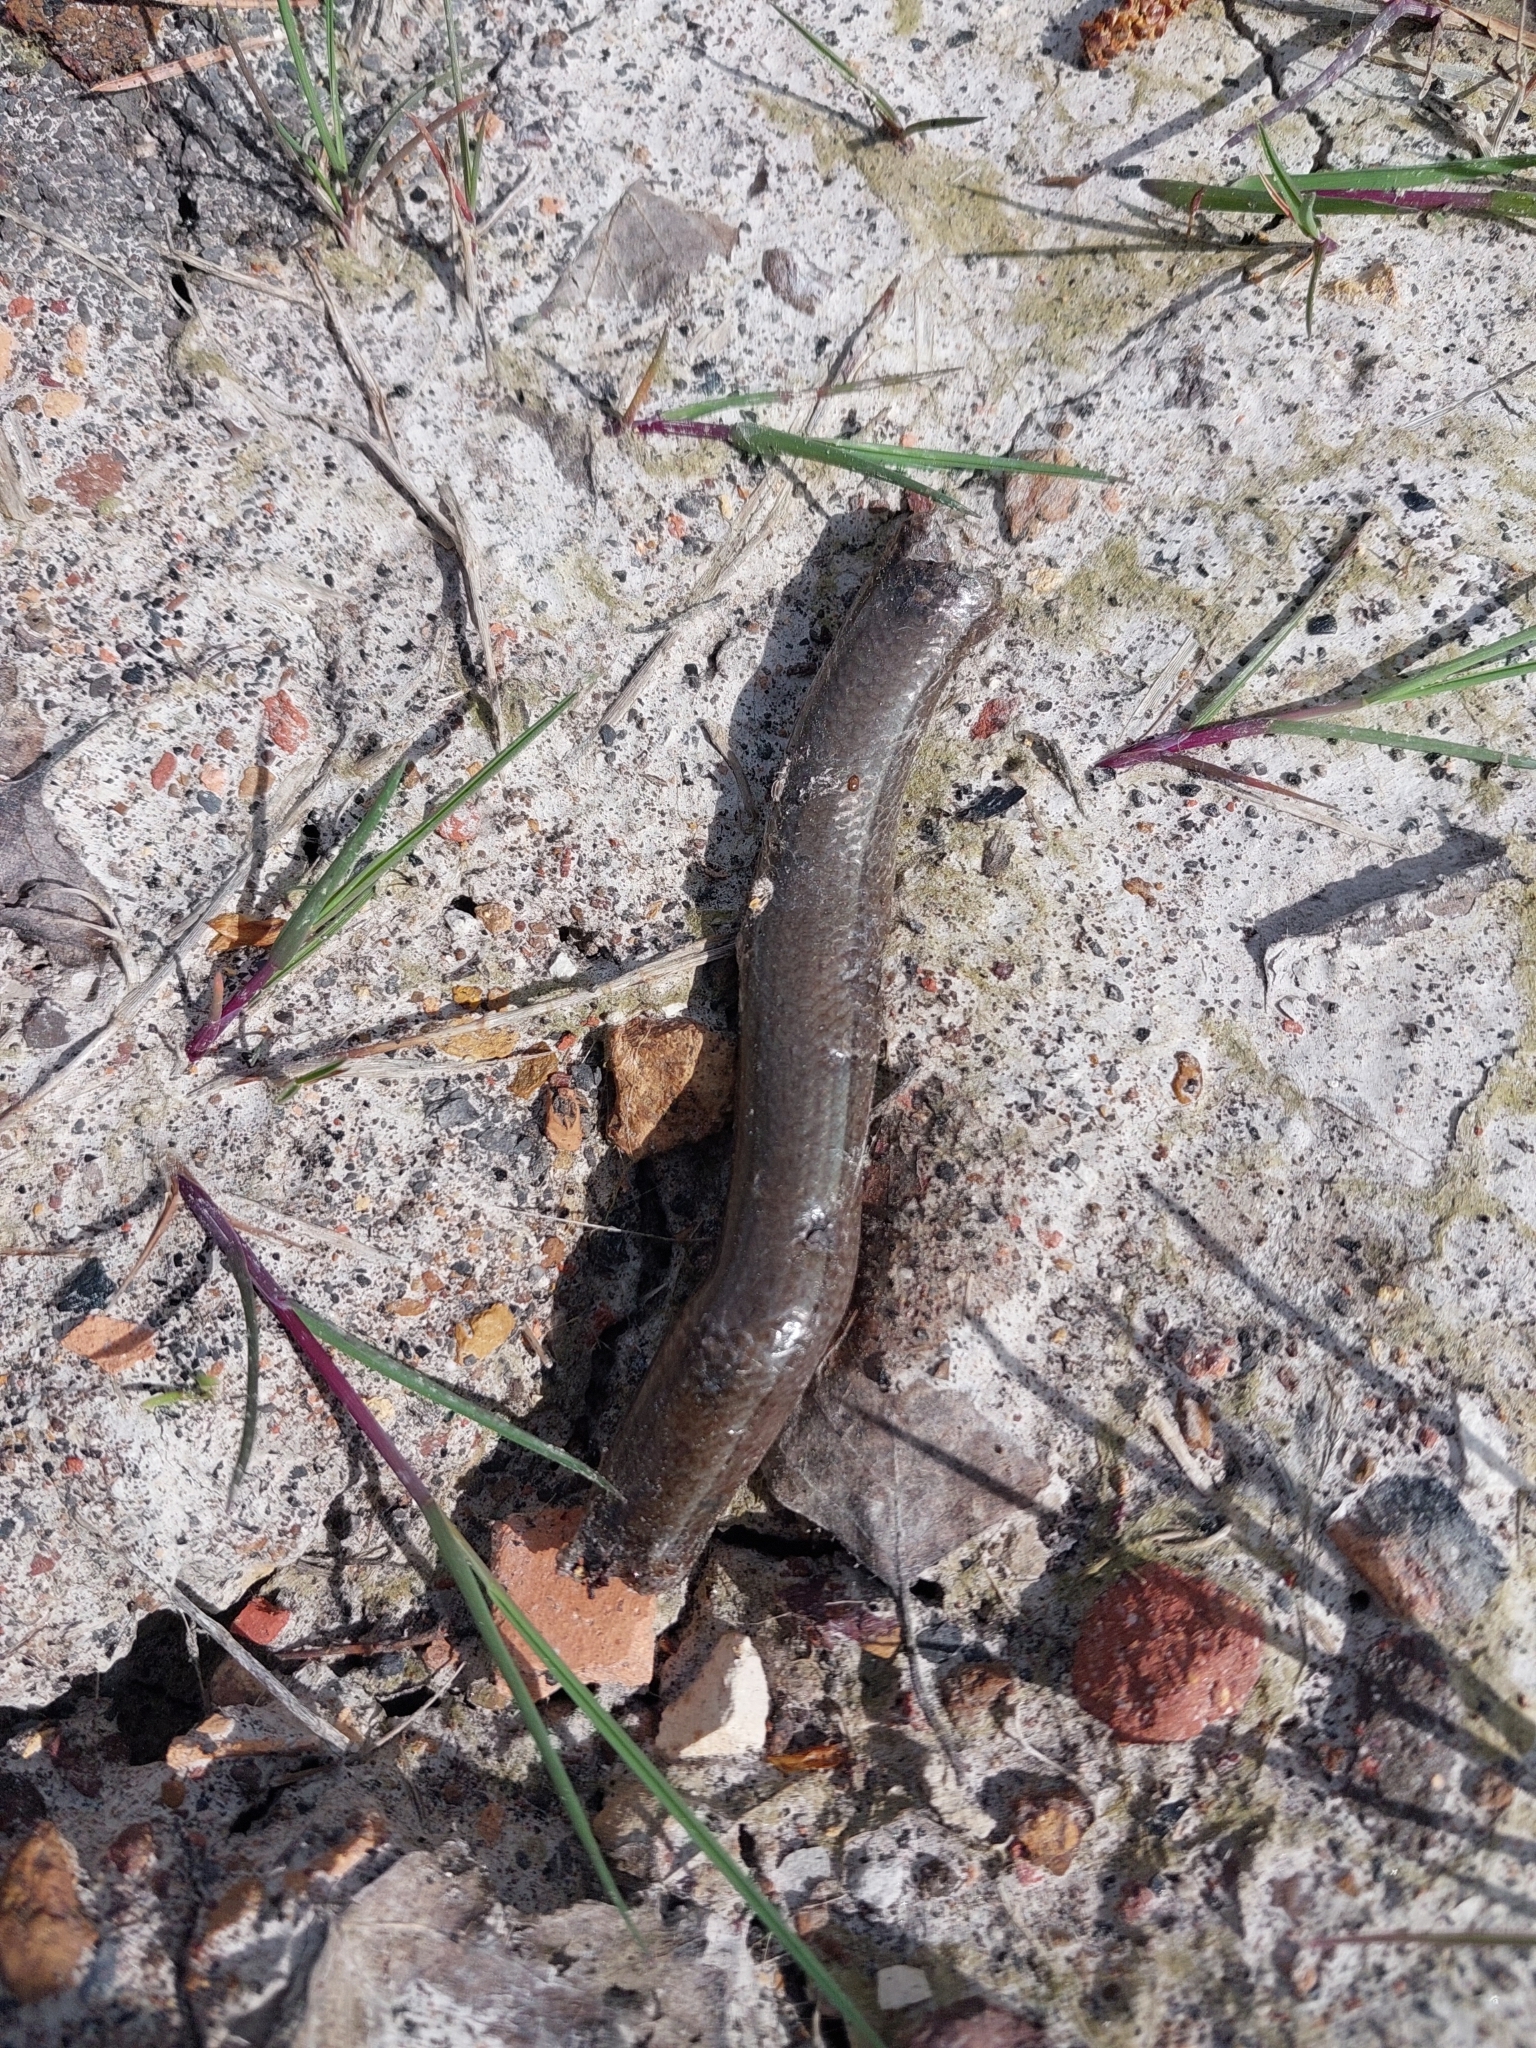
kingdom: Animalia
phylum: Chordata
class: Squamata
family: Anguidae
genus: Anguis
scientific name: Anguis fragilis
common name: Slow worm
